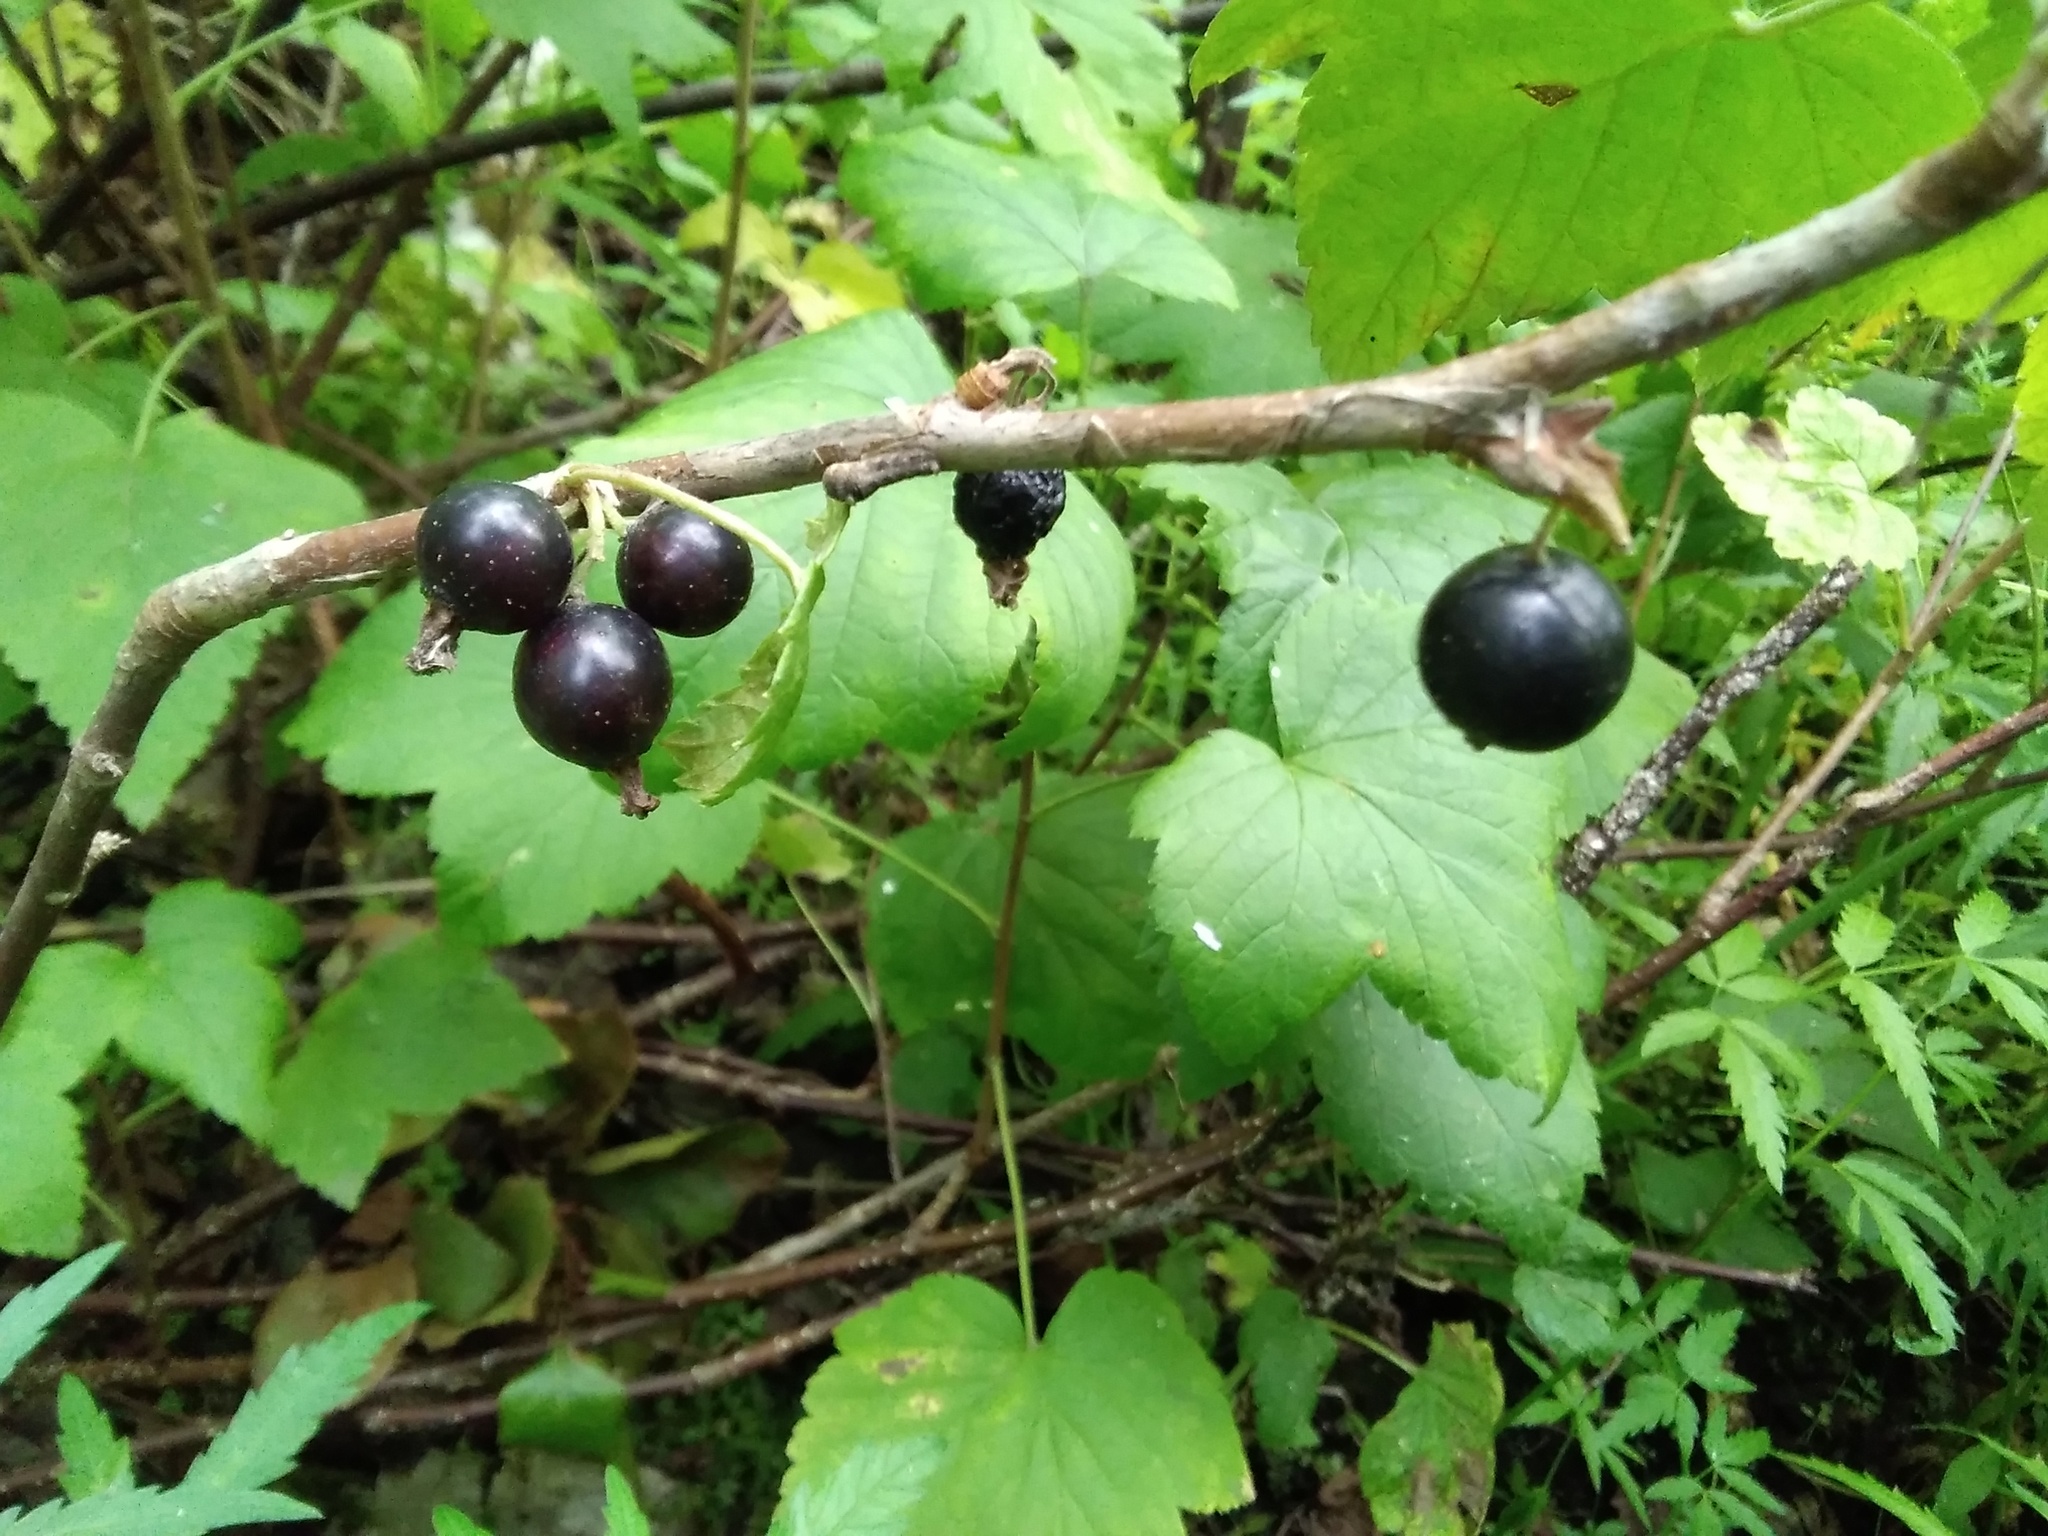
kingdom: Plantae
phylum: Tracheophyta
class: Magnoliopsida
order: Saxifragales
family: Grossulariaceae
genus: Ribes
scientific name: Ribes nigrum
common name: Black currant
